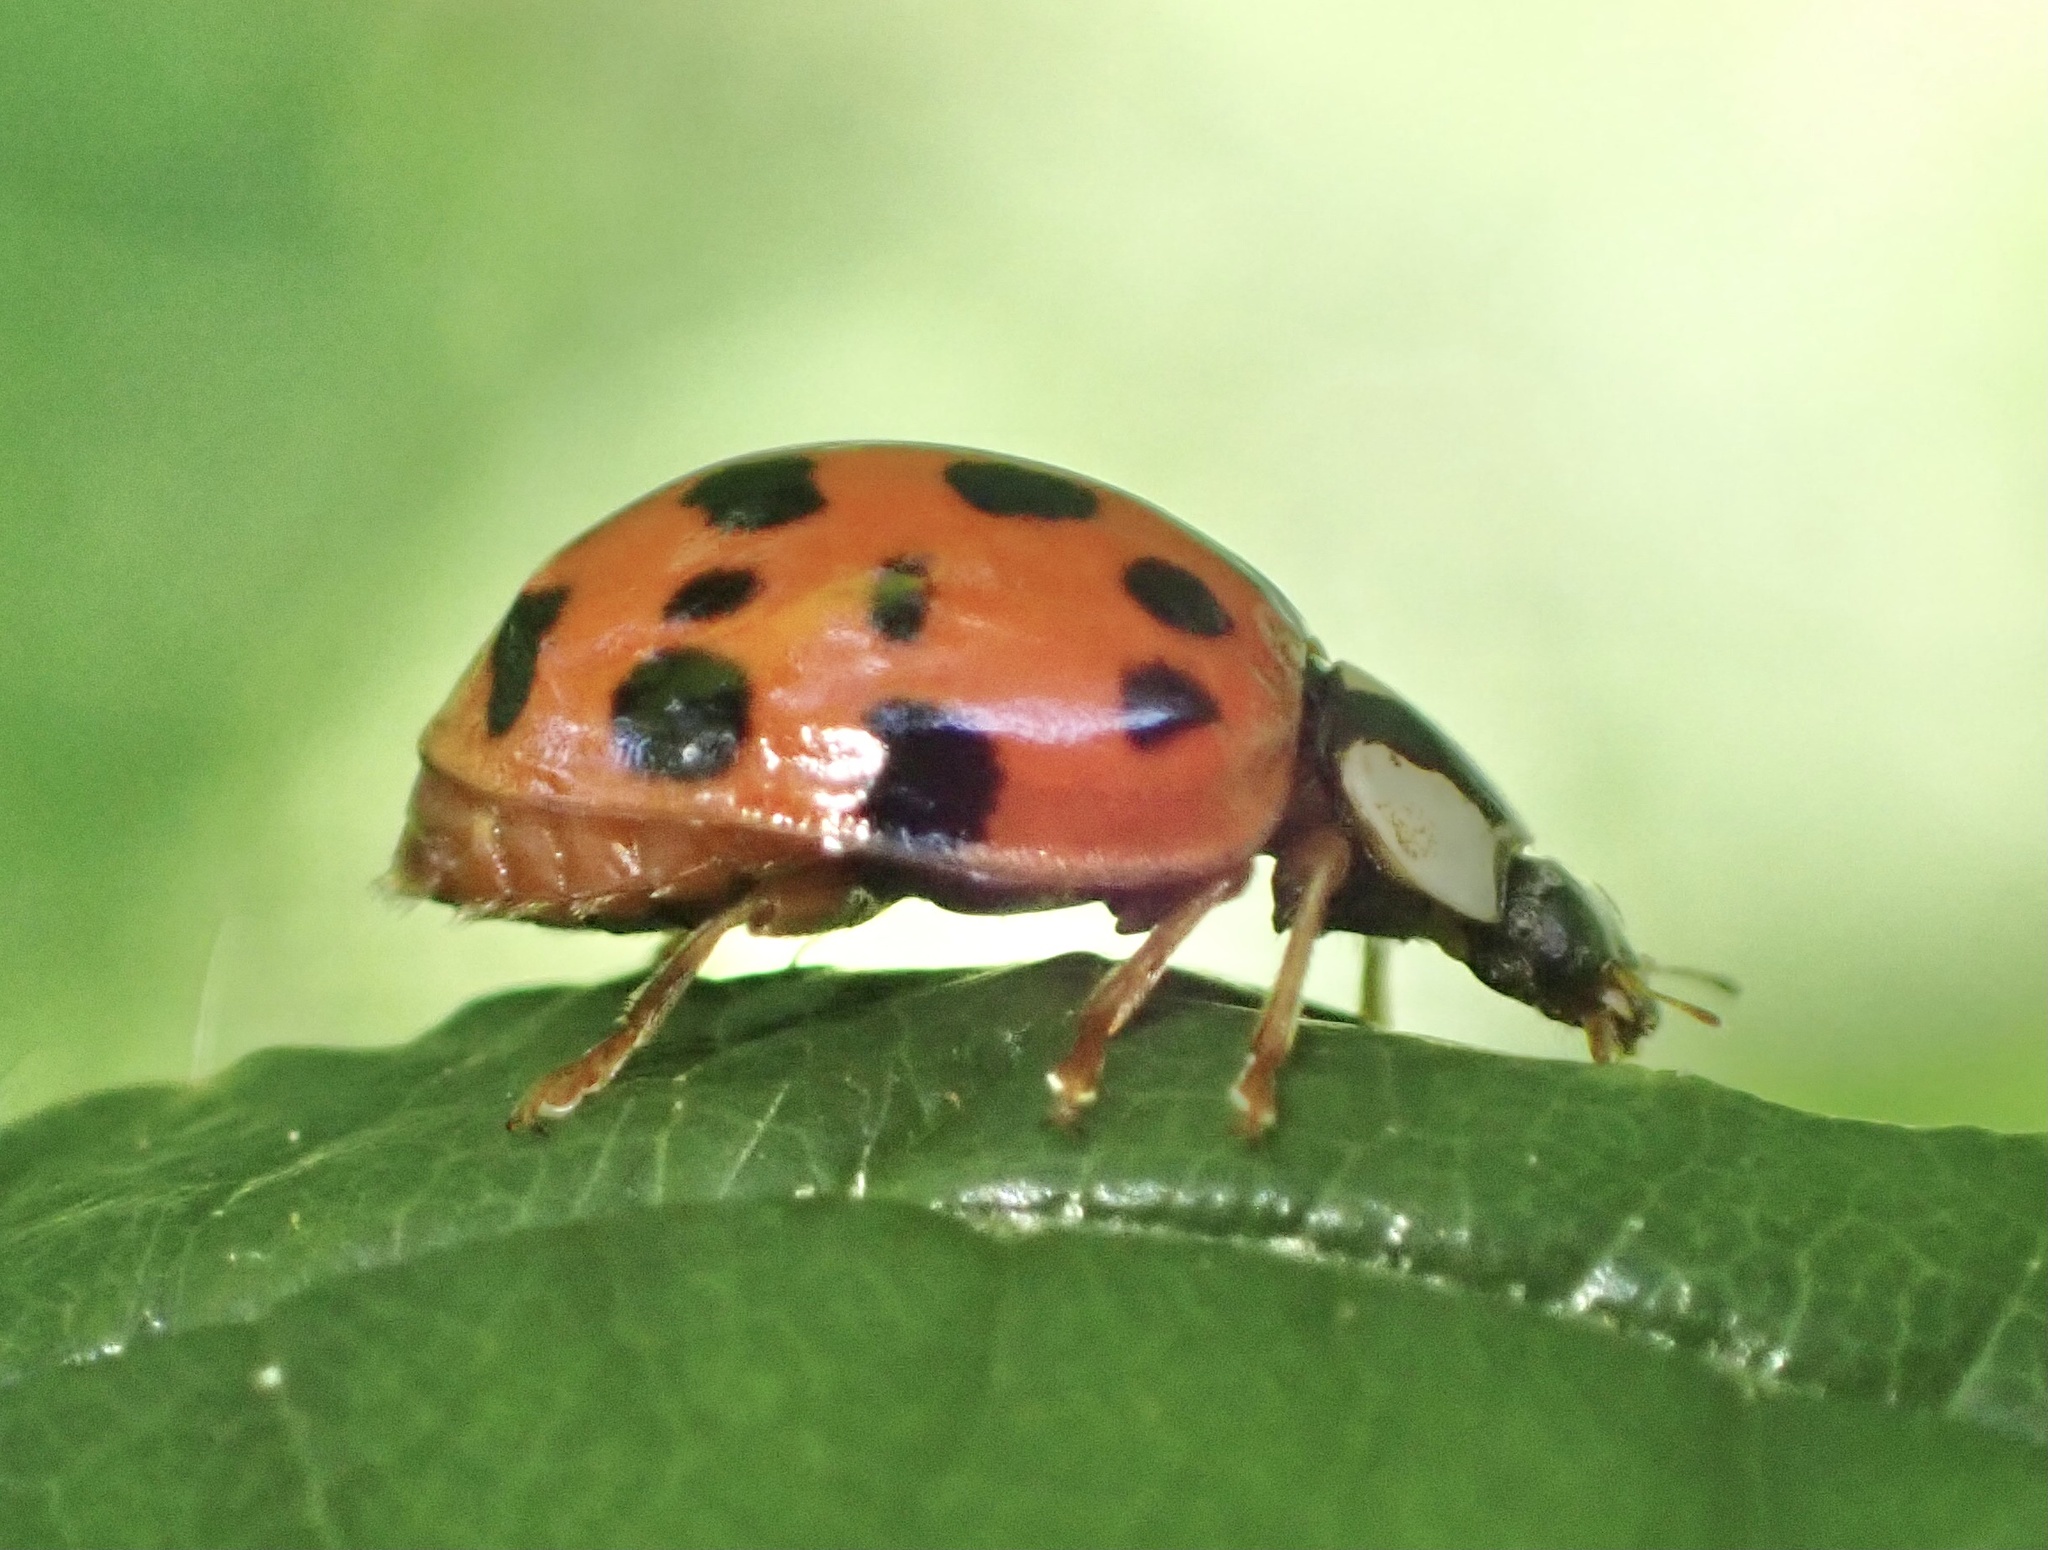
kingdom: Animalia
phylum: Arthropoda
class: Insecta
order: Coleoptera
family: Coccinellidae
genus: Harmonia
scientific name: Harmonia axyridis
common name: Harlequin ladybird
